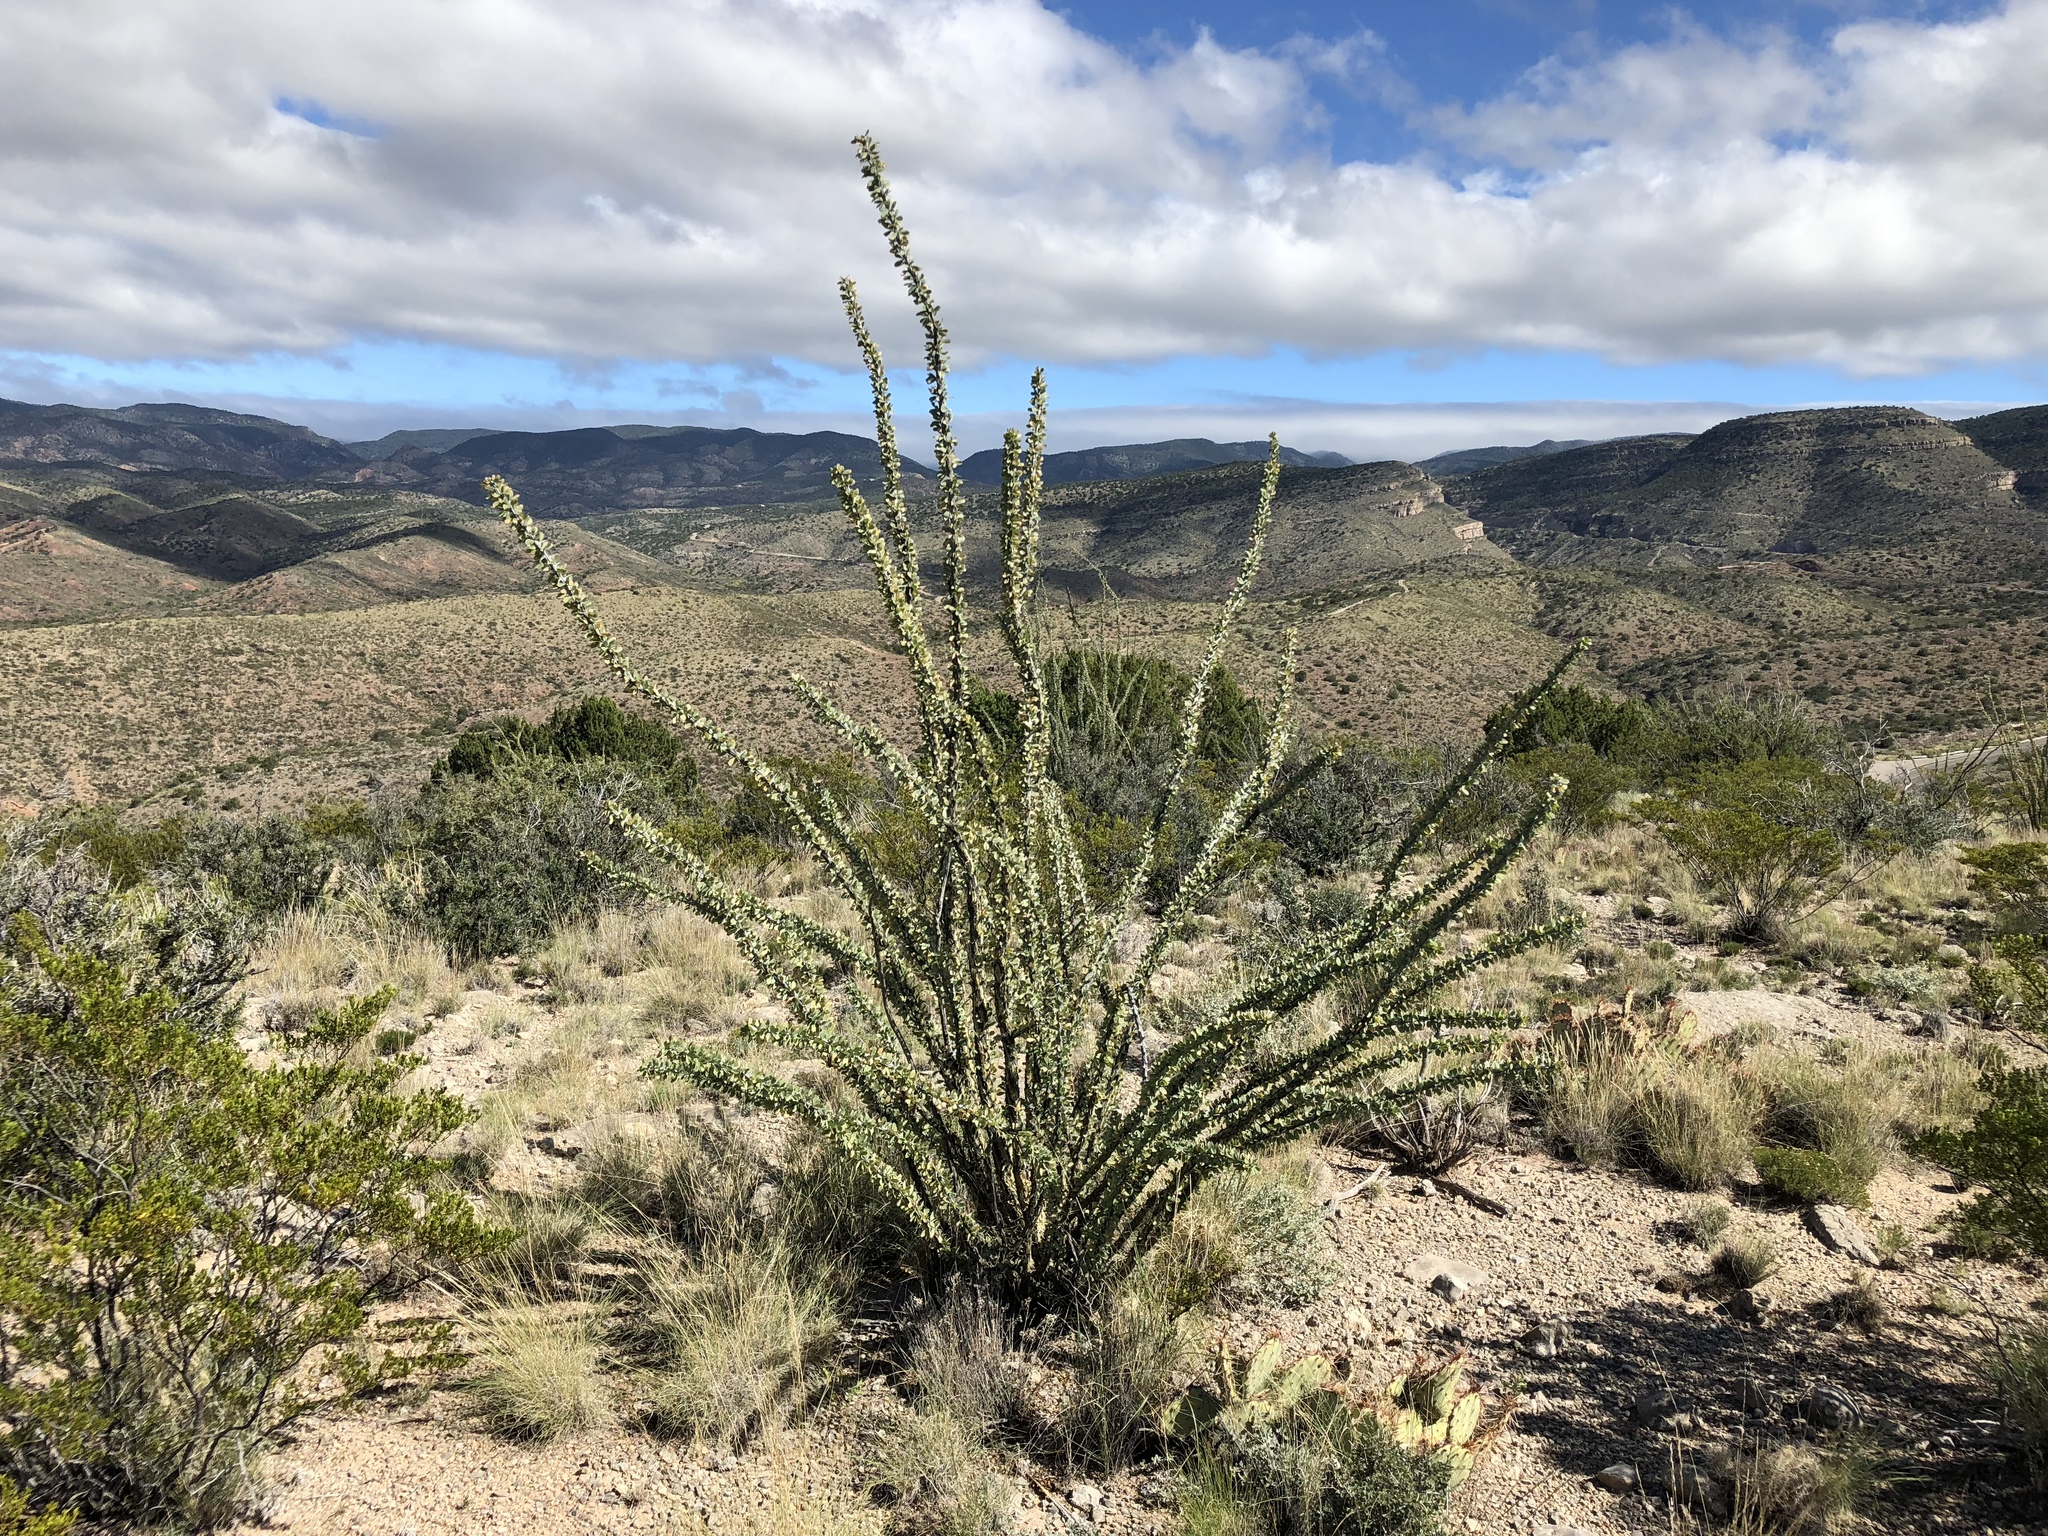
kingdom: Plantae
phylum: Tracheophyta
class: Magnoliopsida
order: Ericales
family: Fouquieriaceae
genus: Fouquieria
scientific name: Fouquieria splendens
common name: Vine-cactus
